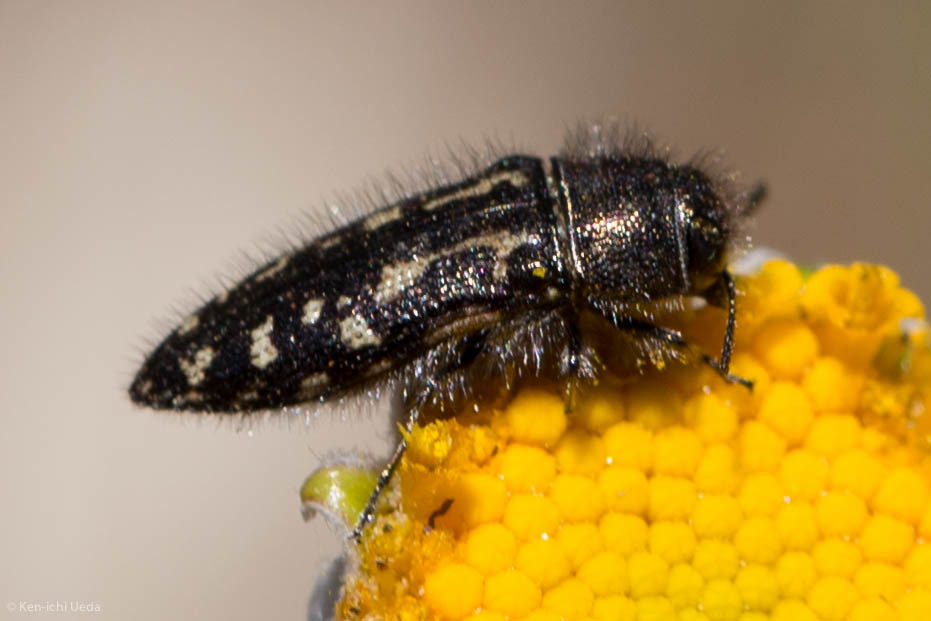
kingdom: Animalia
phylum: Arthropoda
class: Insecta
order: Coleoptera
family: Buprestidae
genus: Acmaeodera
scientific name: Acmaeodera retifera
